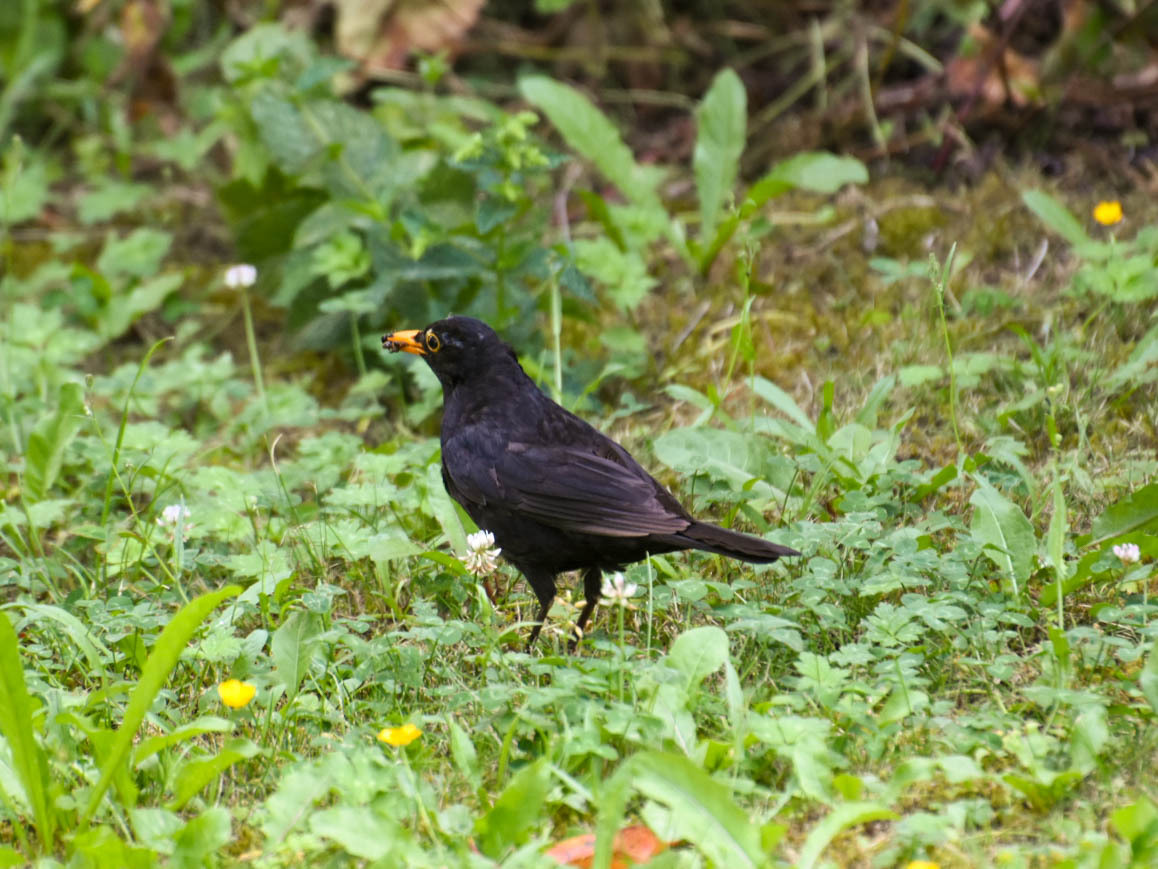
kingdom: Animalia
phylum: Chordata
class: Aves
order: Passeriformes
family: Turdidae
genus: Turdus
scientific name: Turdus merula
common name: Common blackbird
